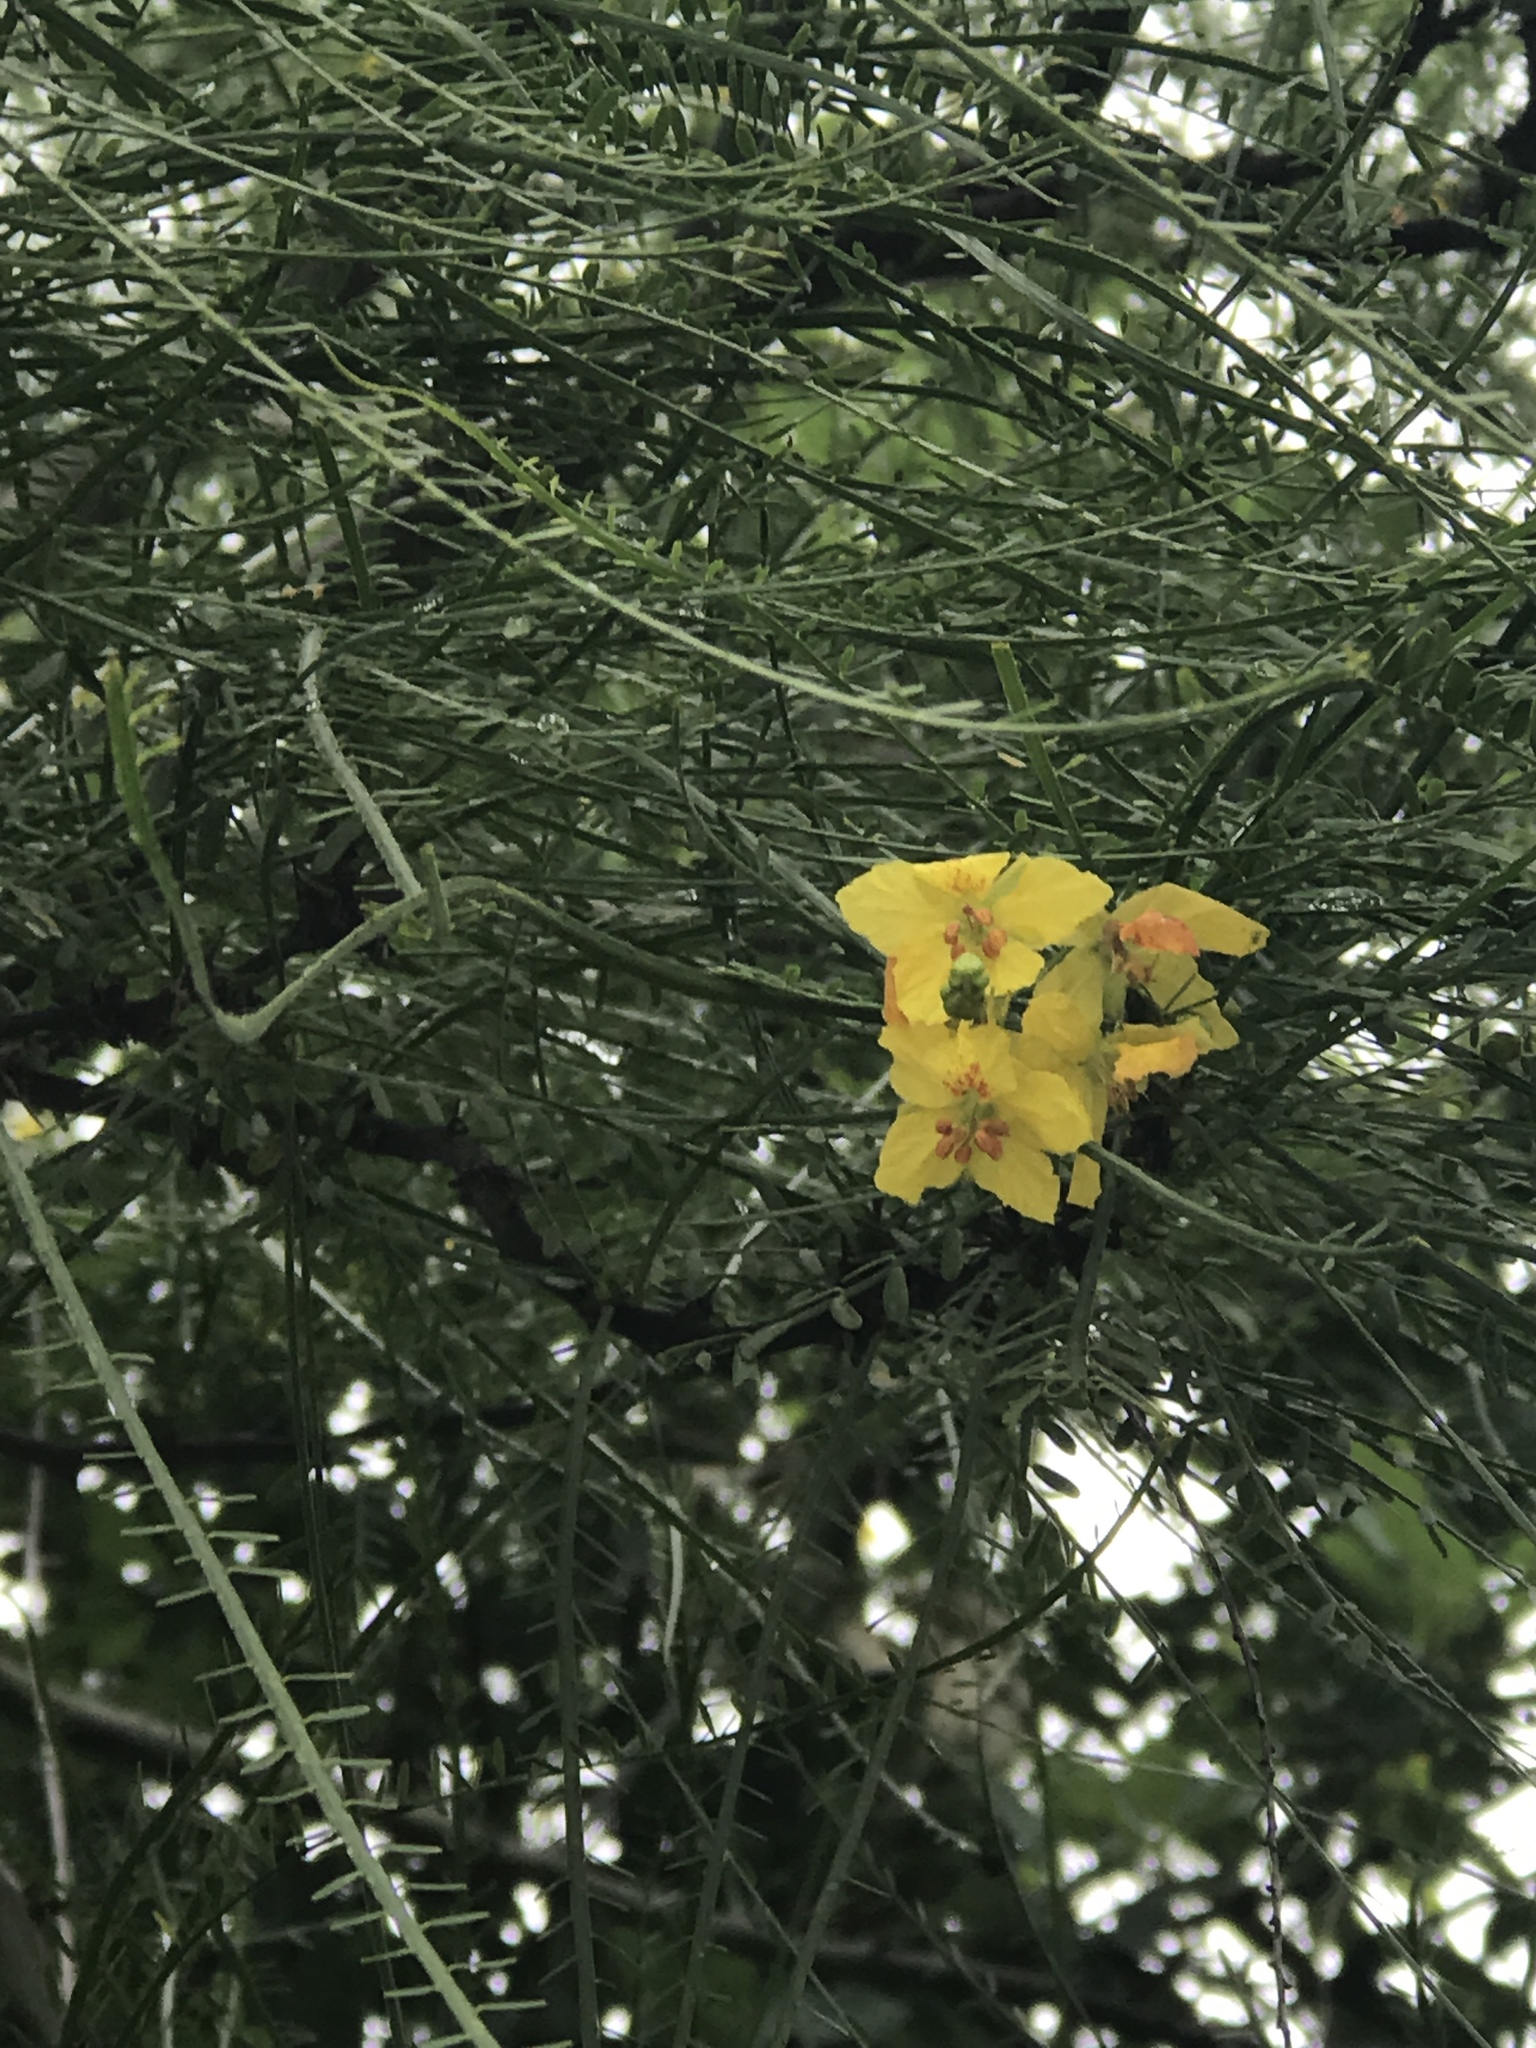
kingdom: Plantae
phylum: Tracheophyta
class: Magnoliopsida
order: Fabales
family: Fabaceae
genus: Parkinsonia
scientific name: Parkinsonia aculeata
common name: Jerusalem thorn
